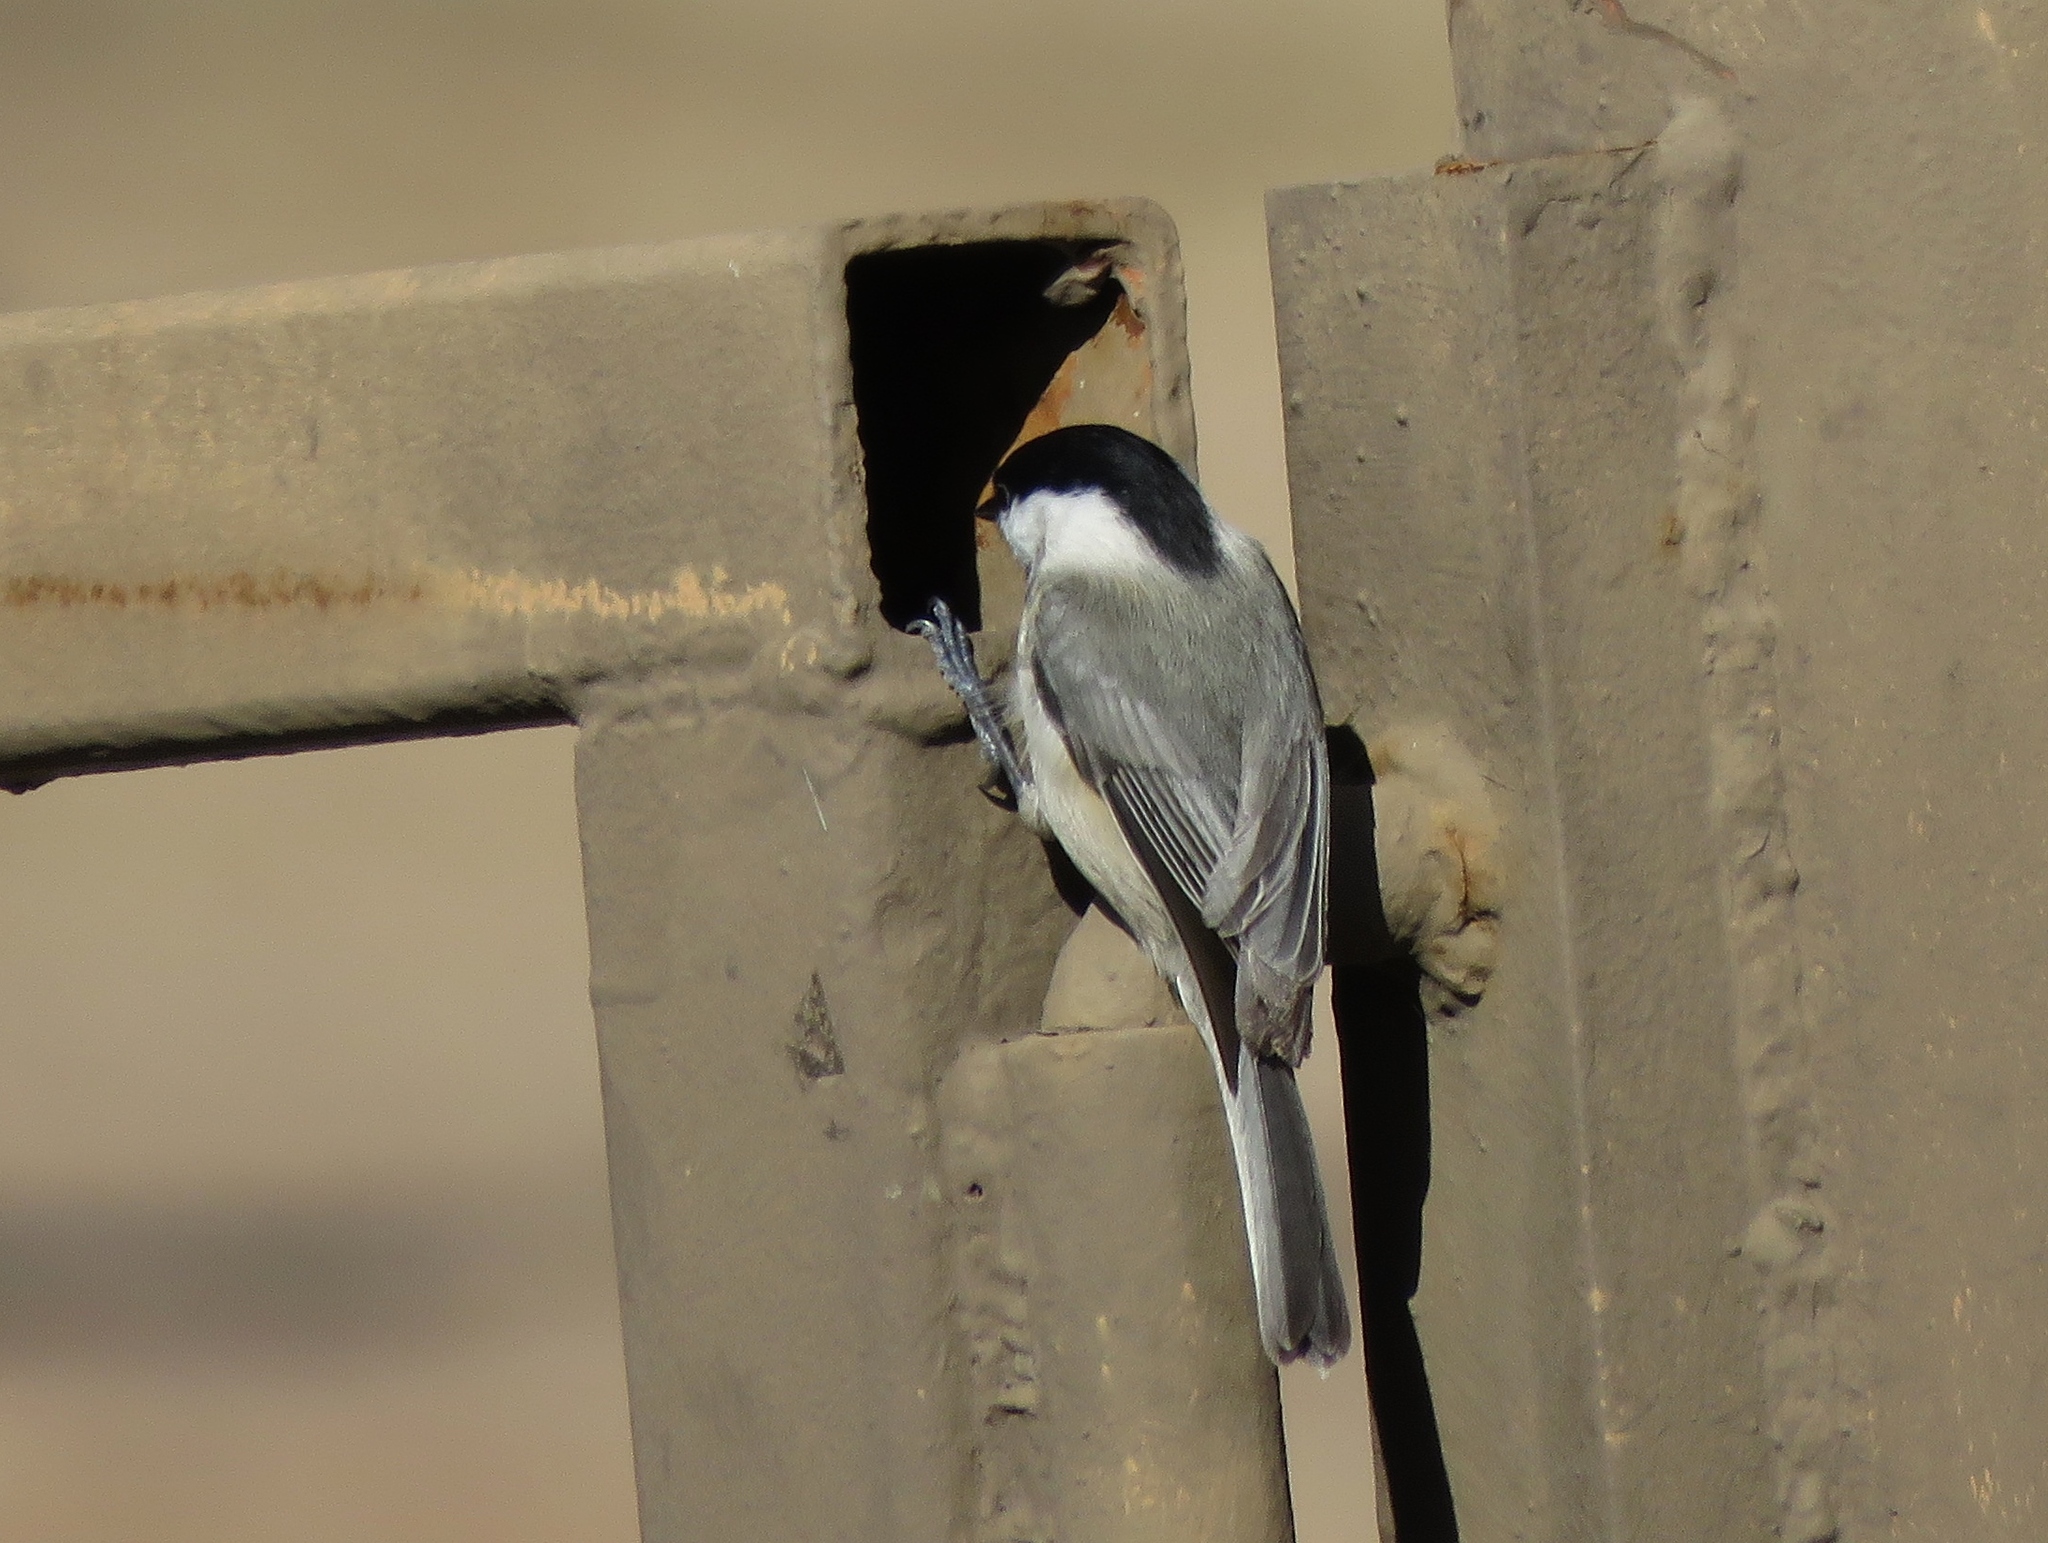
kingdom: Animalia
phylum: Chordata
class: Aves
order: Passeriformes
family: Paridae
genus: Poecile
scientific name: Poecile carolinensis
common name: Carolina chickadee
